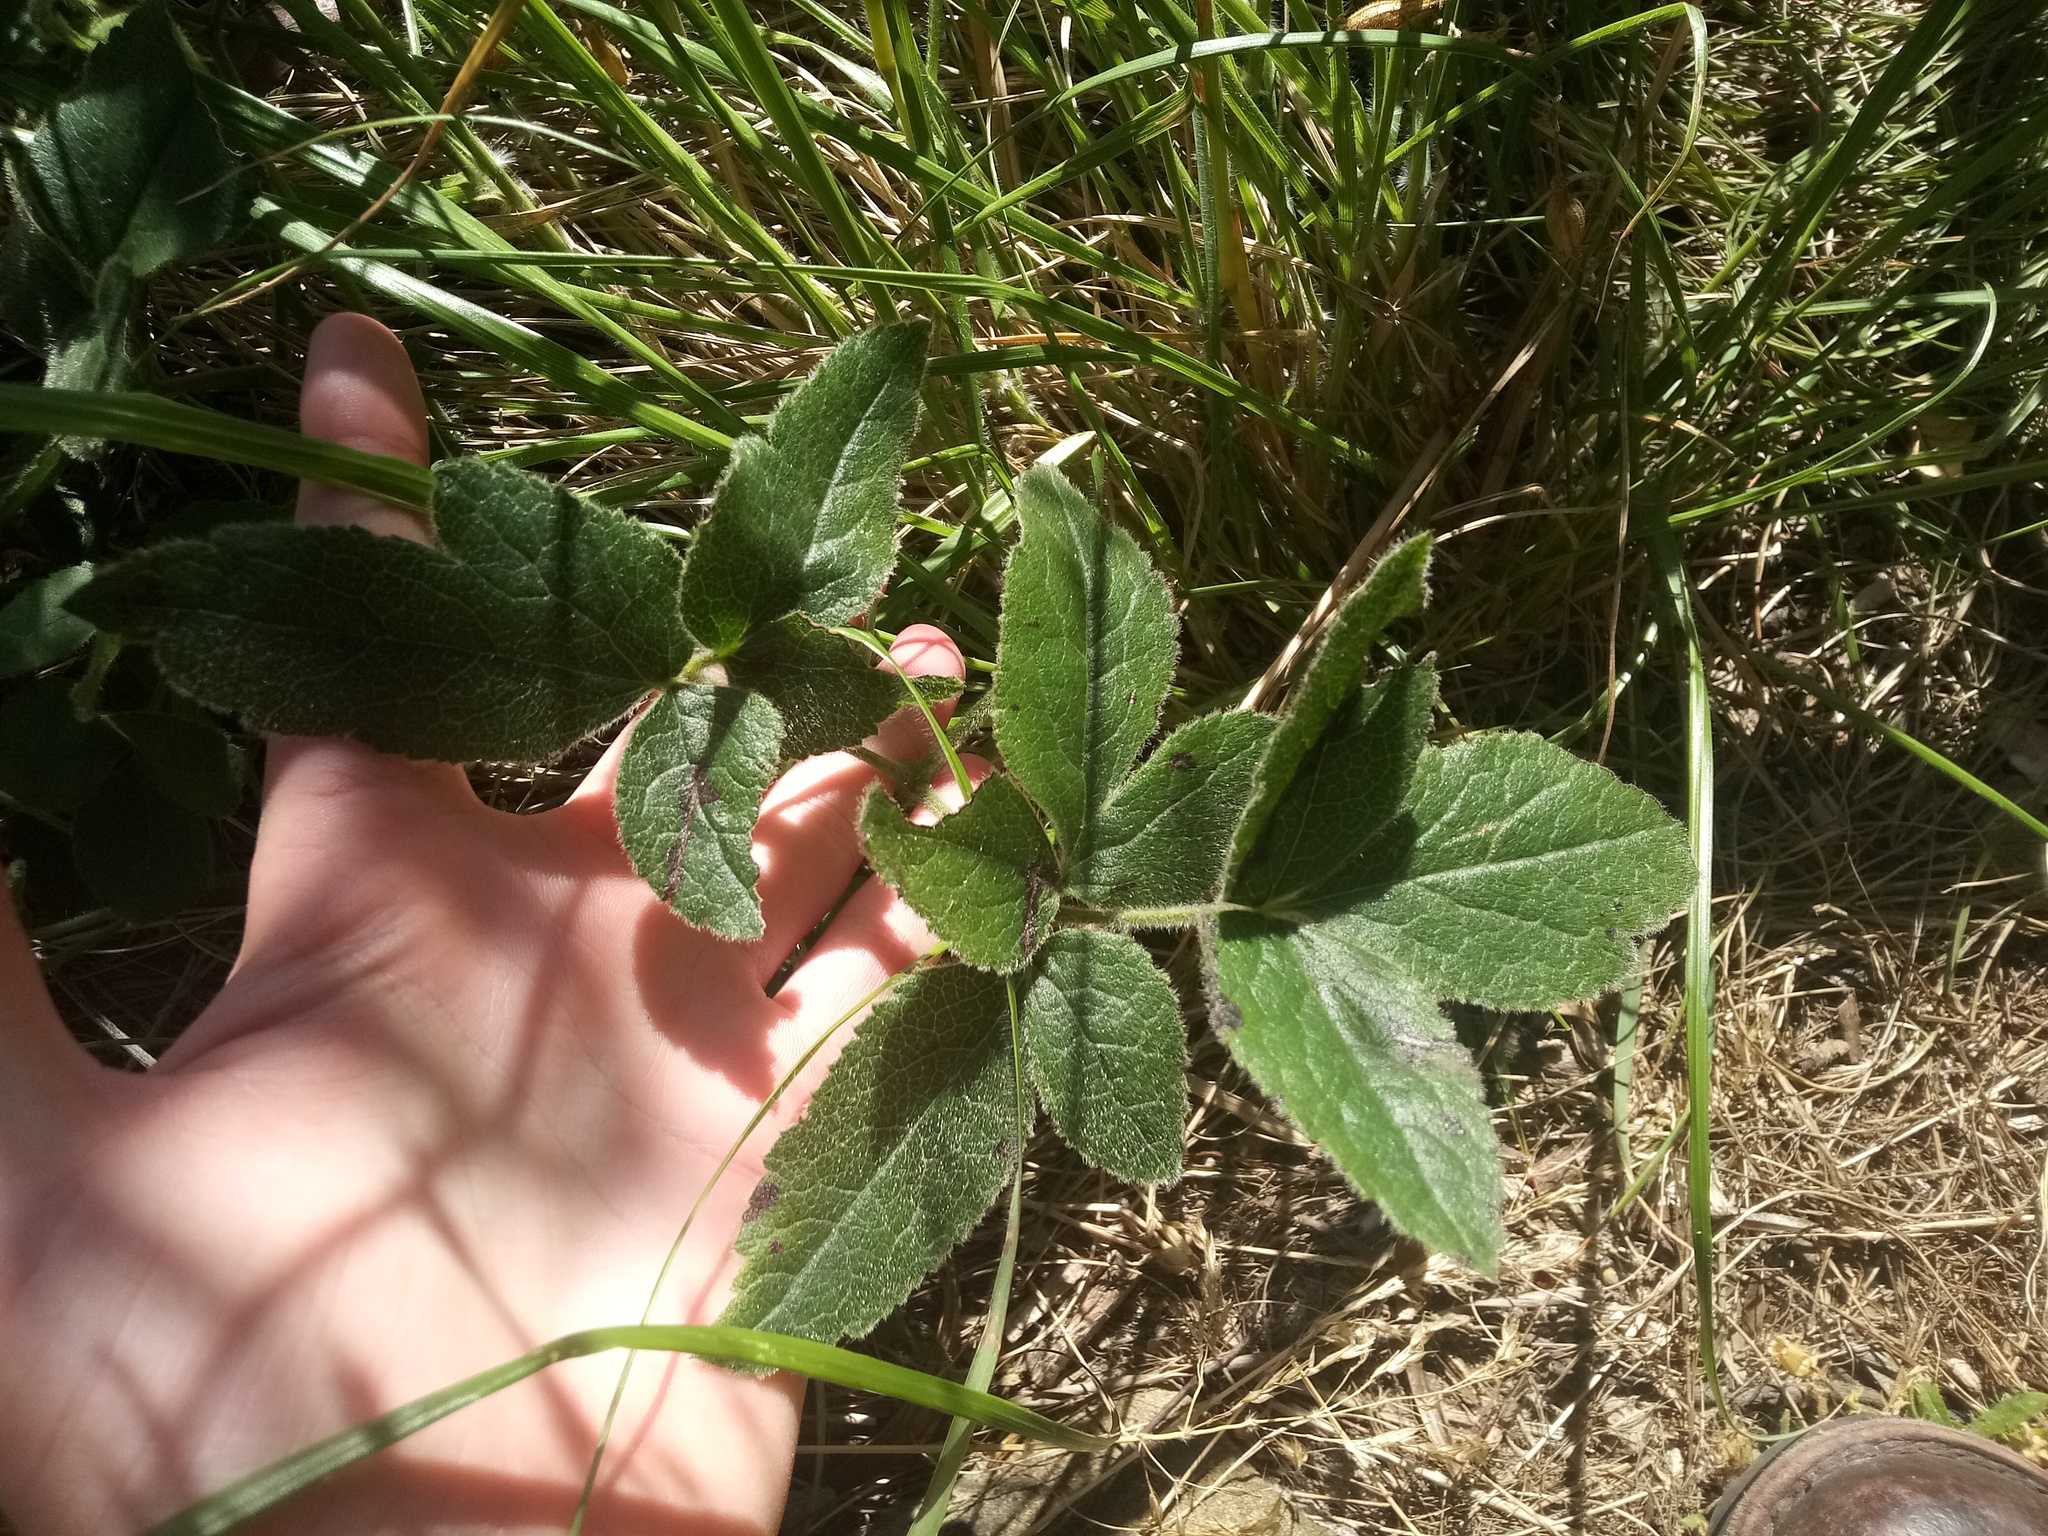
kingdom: Plantae
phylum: Tracheophyta
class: Magnoliopsida
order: Ranunculales
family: Ranunculaceae
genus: Knowltonia
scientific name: Knowltonia capensis
